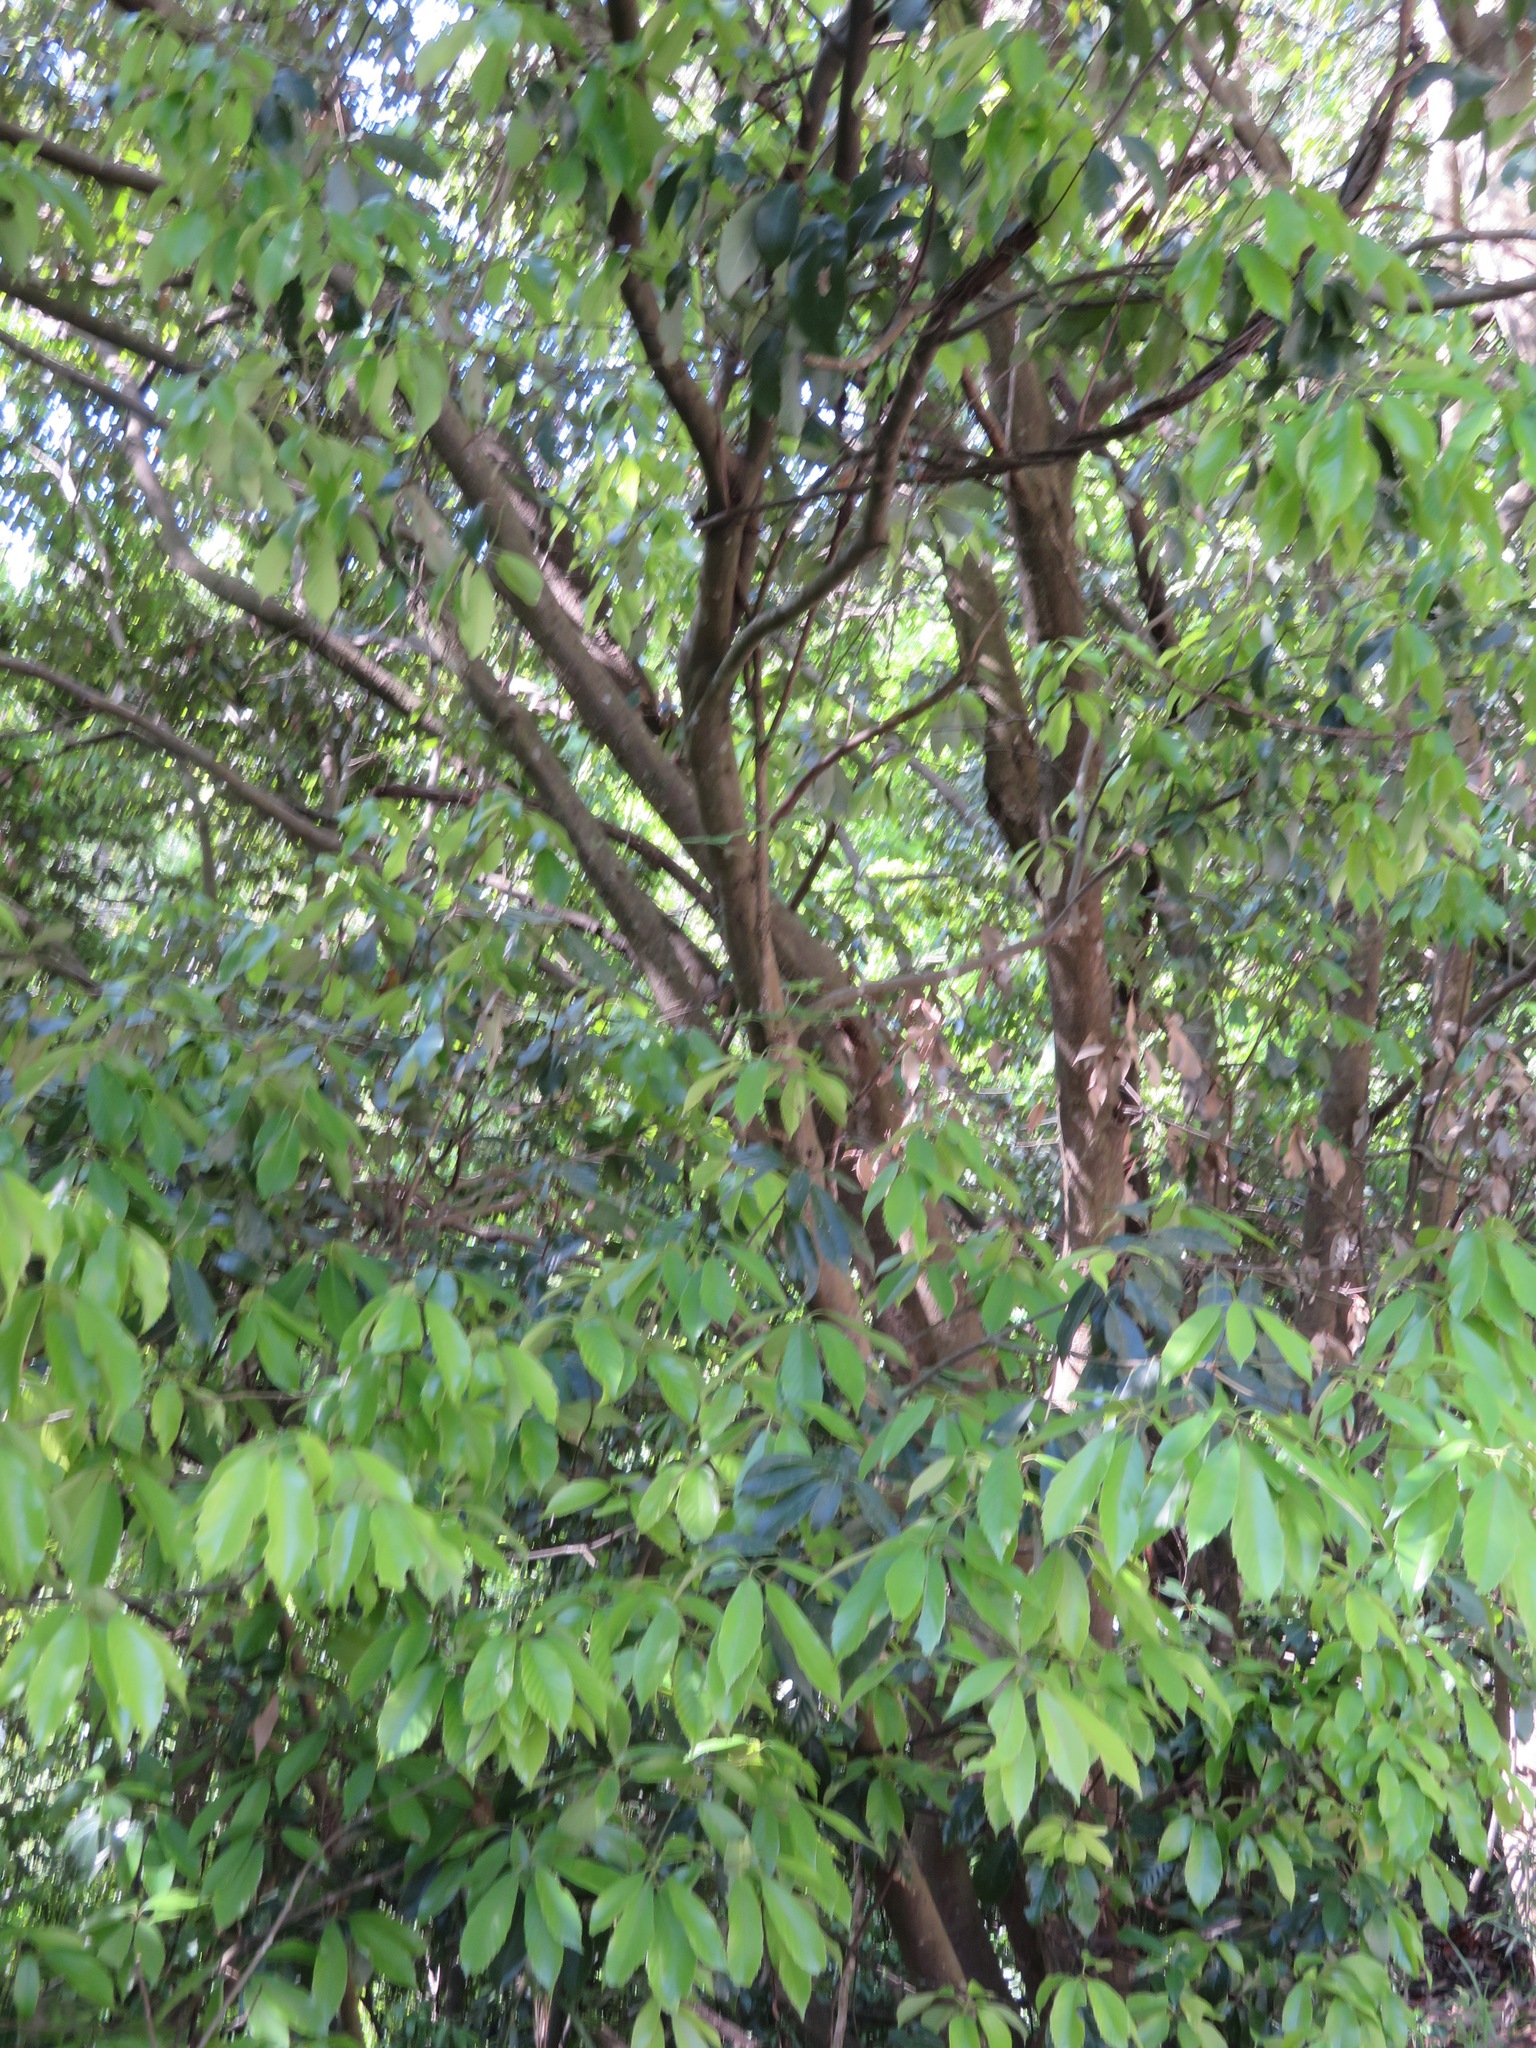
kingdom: Plantae
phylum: Tracheophyta
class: Magnoliopsida
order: Fagales
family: Fagaceae
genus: Quercus
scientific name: Quercus glauca
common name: Ring-cup oak
